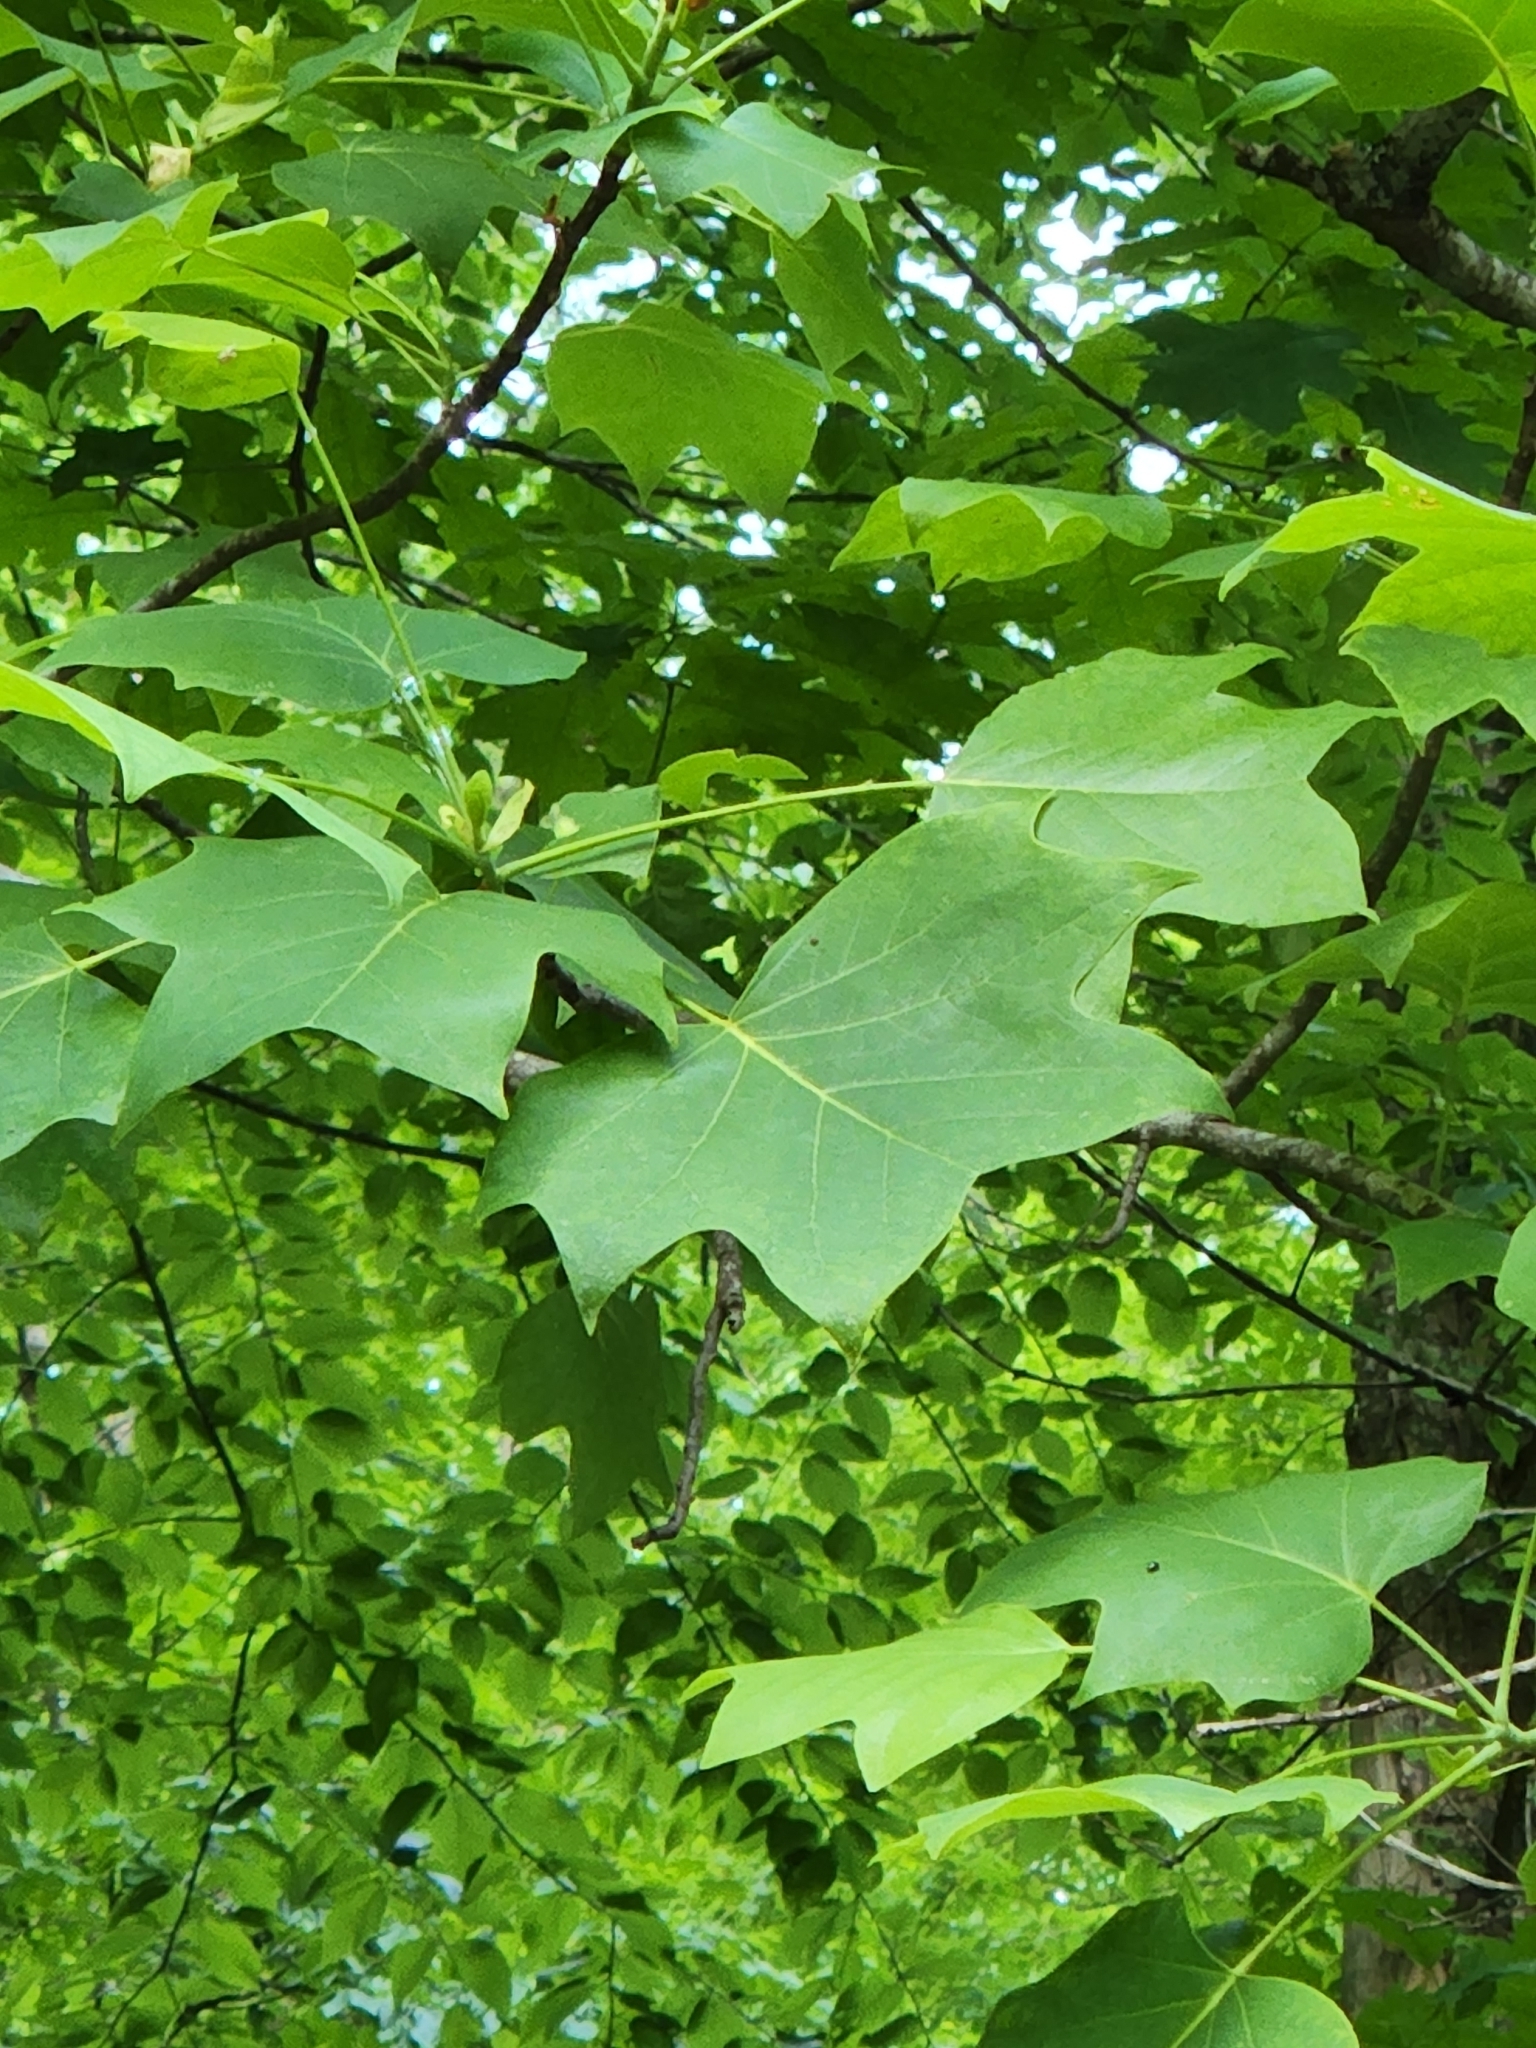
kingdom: Plantae
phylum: Tracheophyta
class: Magnoliopsida
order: Magnoliales
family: Magnoliaceae
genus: Liriodendron
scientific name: Liriodendron tulipifera
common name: Tulip tree
